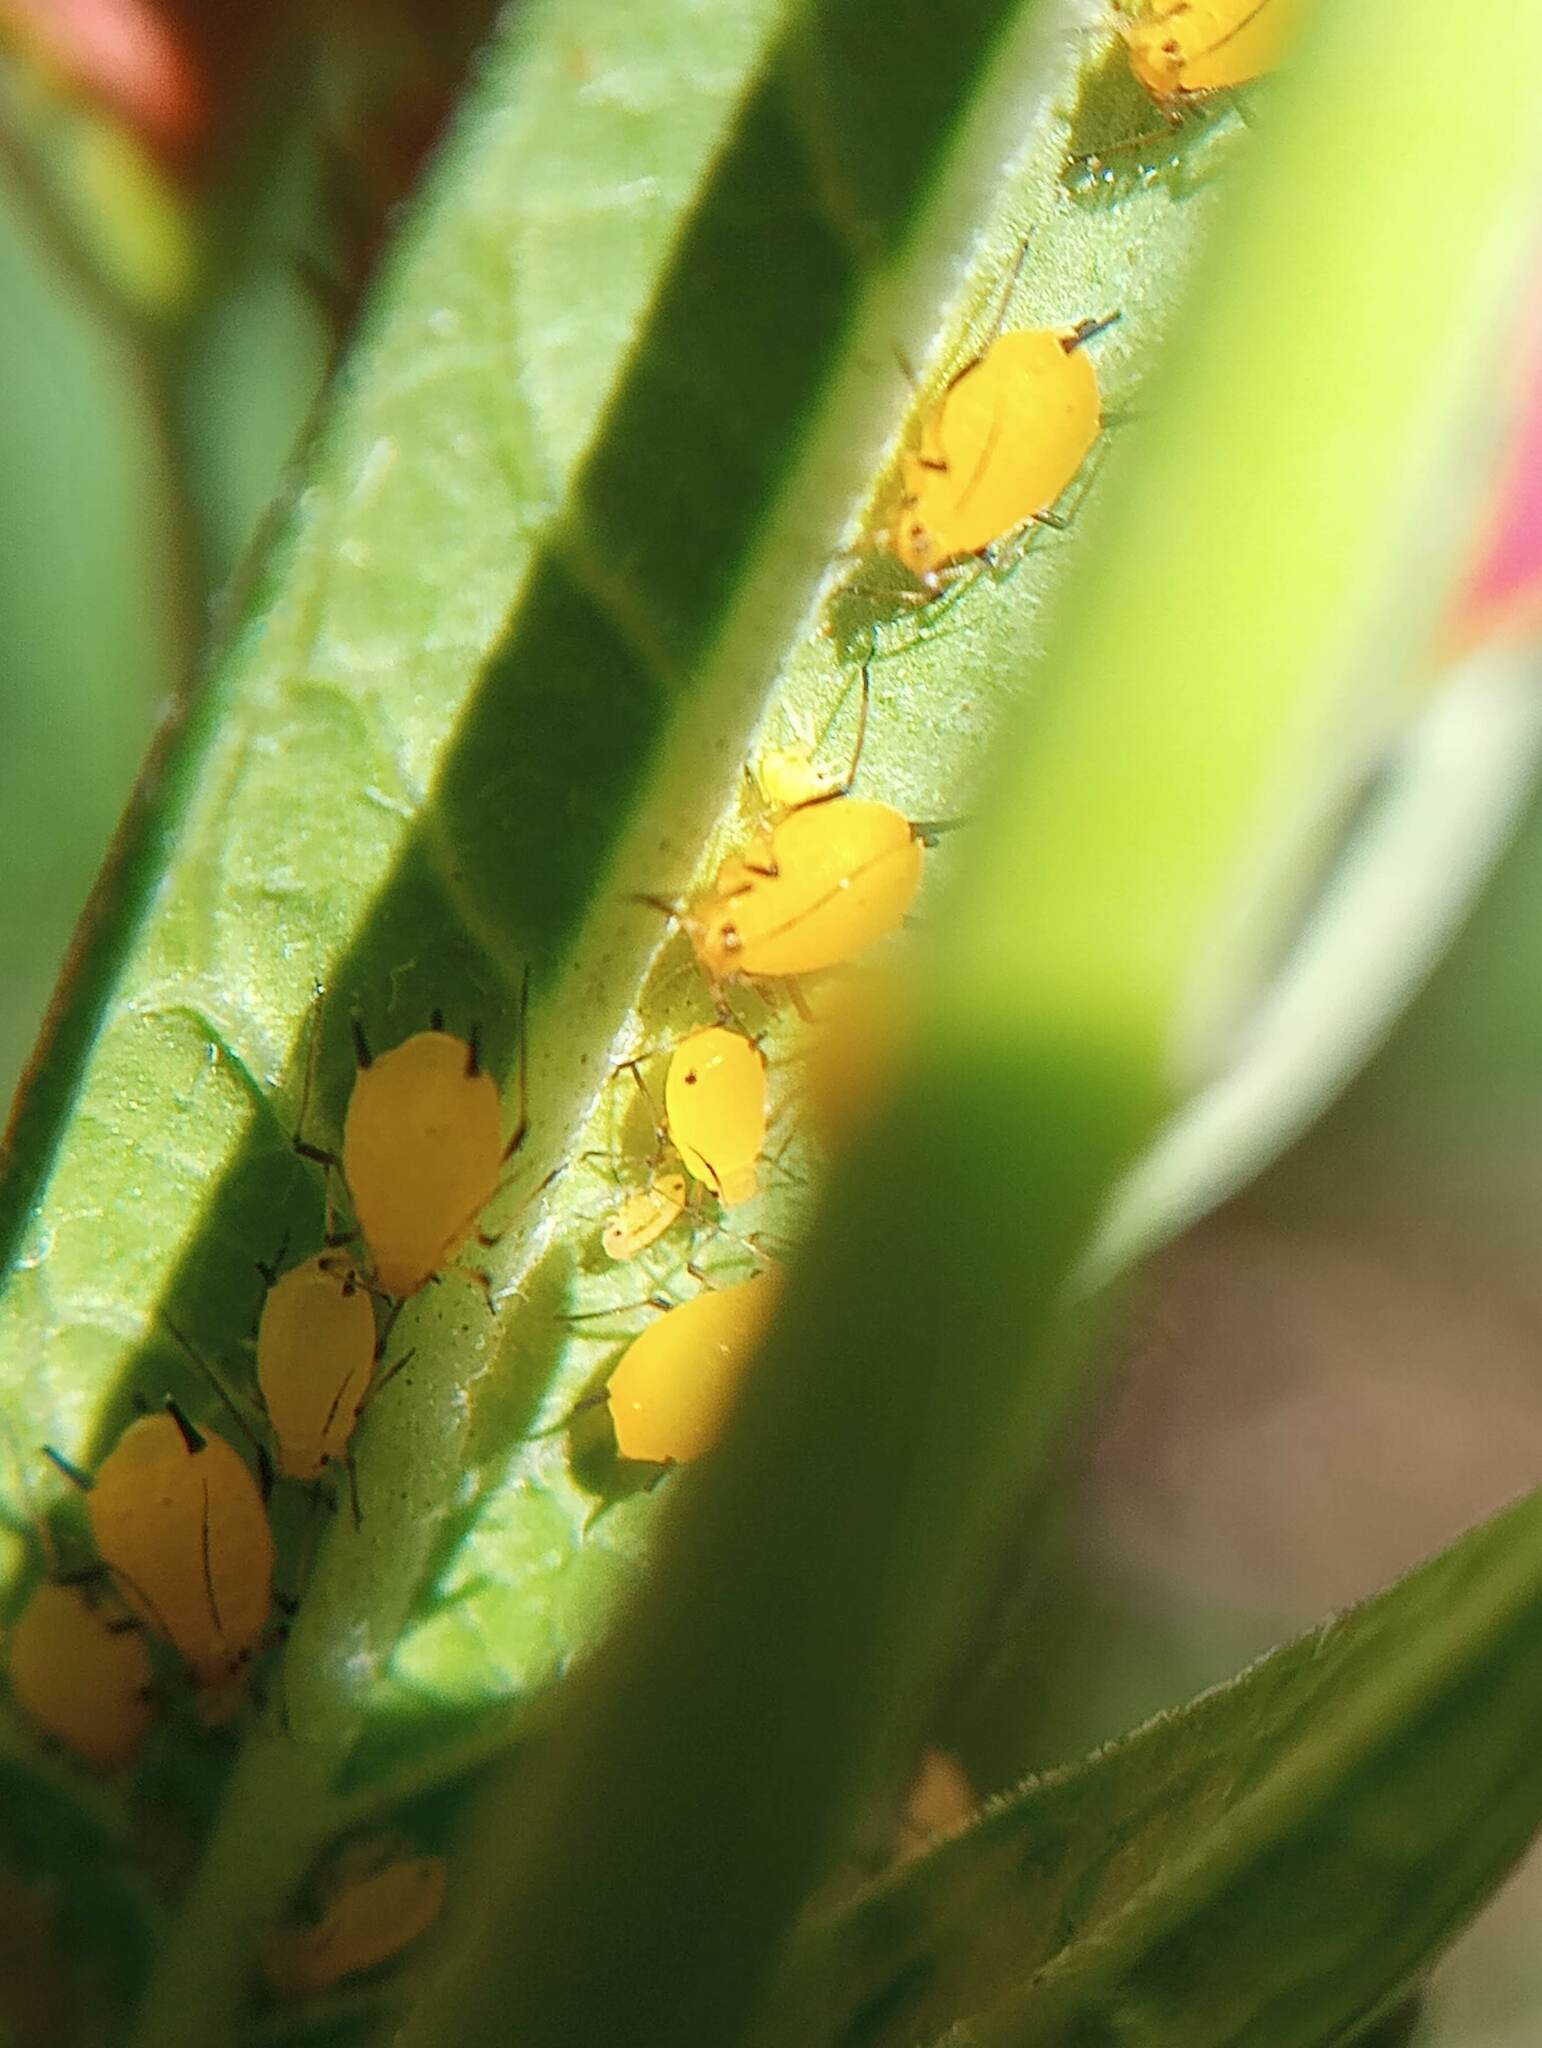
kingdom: Animalia
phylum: Arthropoda
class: Insecta
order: Hemiptera
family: Aphididae
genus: Aphis
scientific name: Aphis nerii
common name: Oleander aphid
